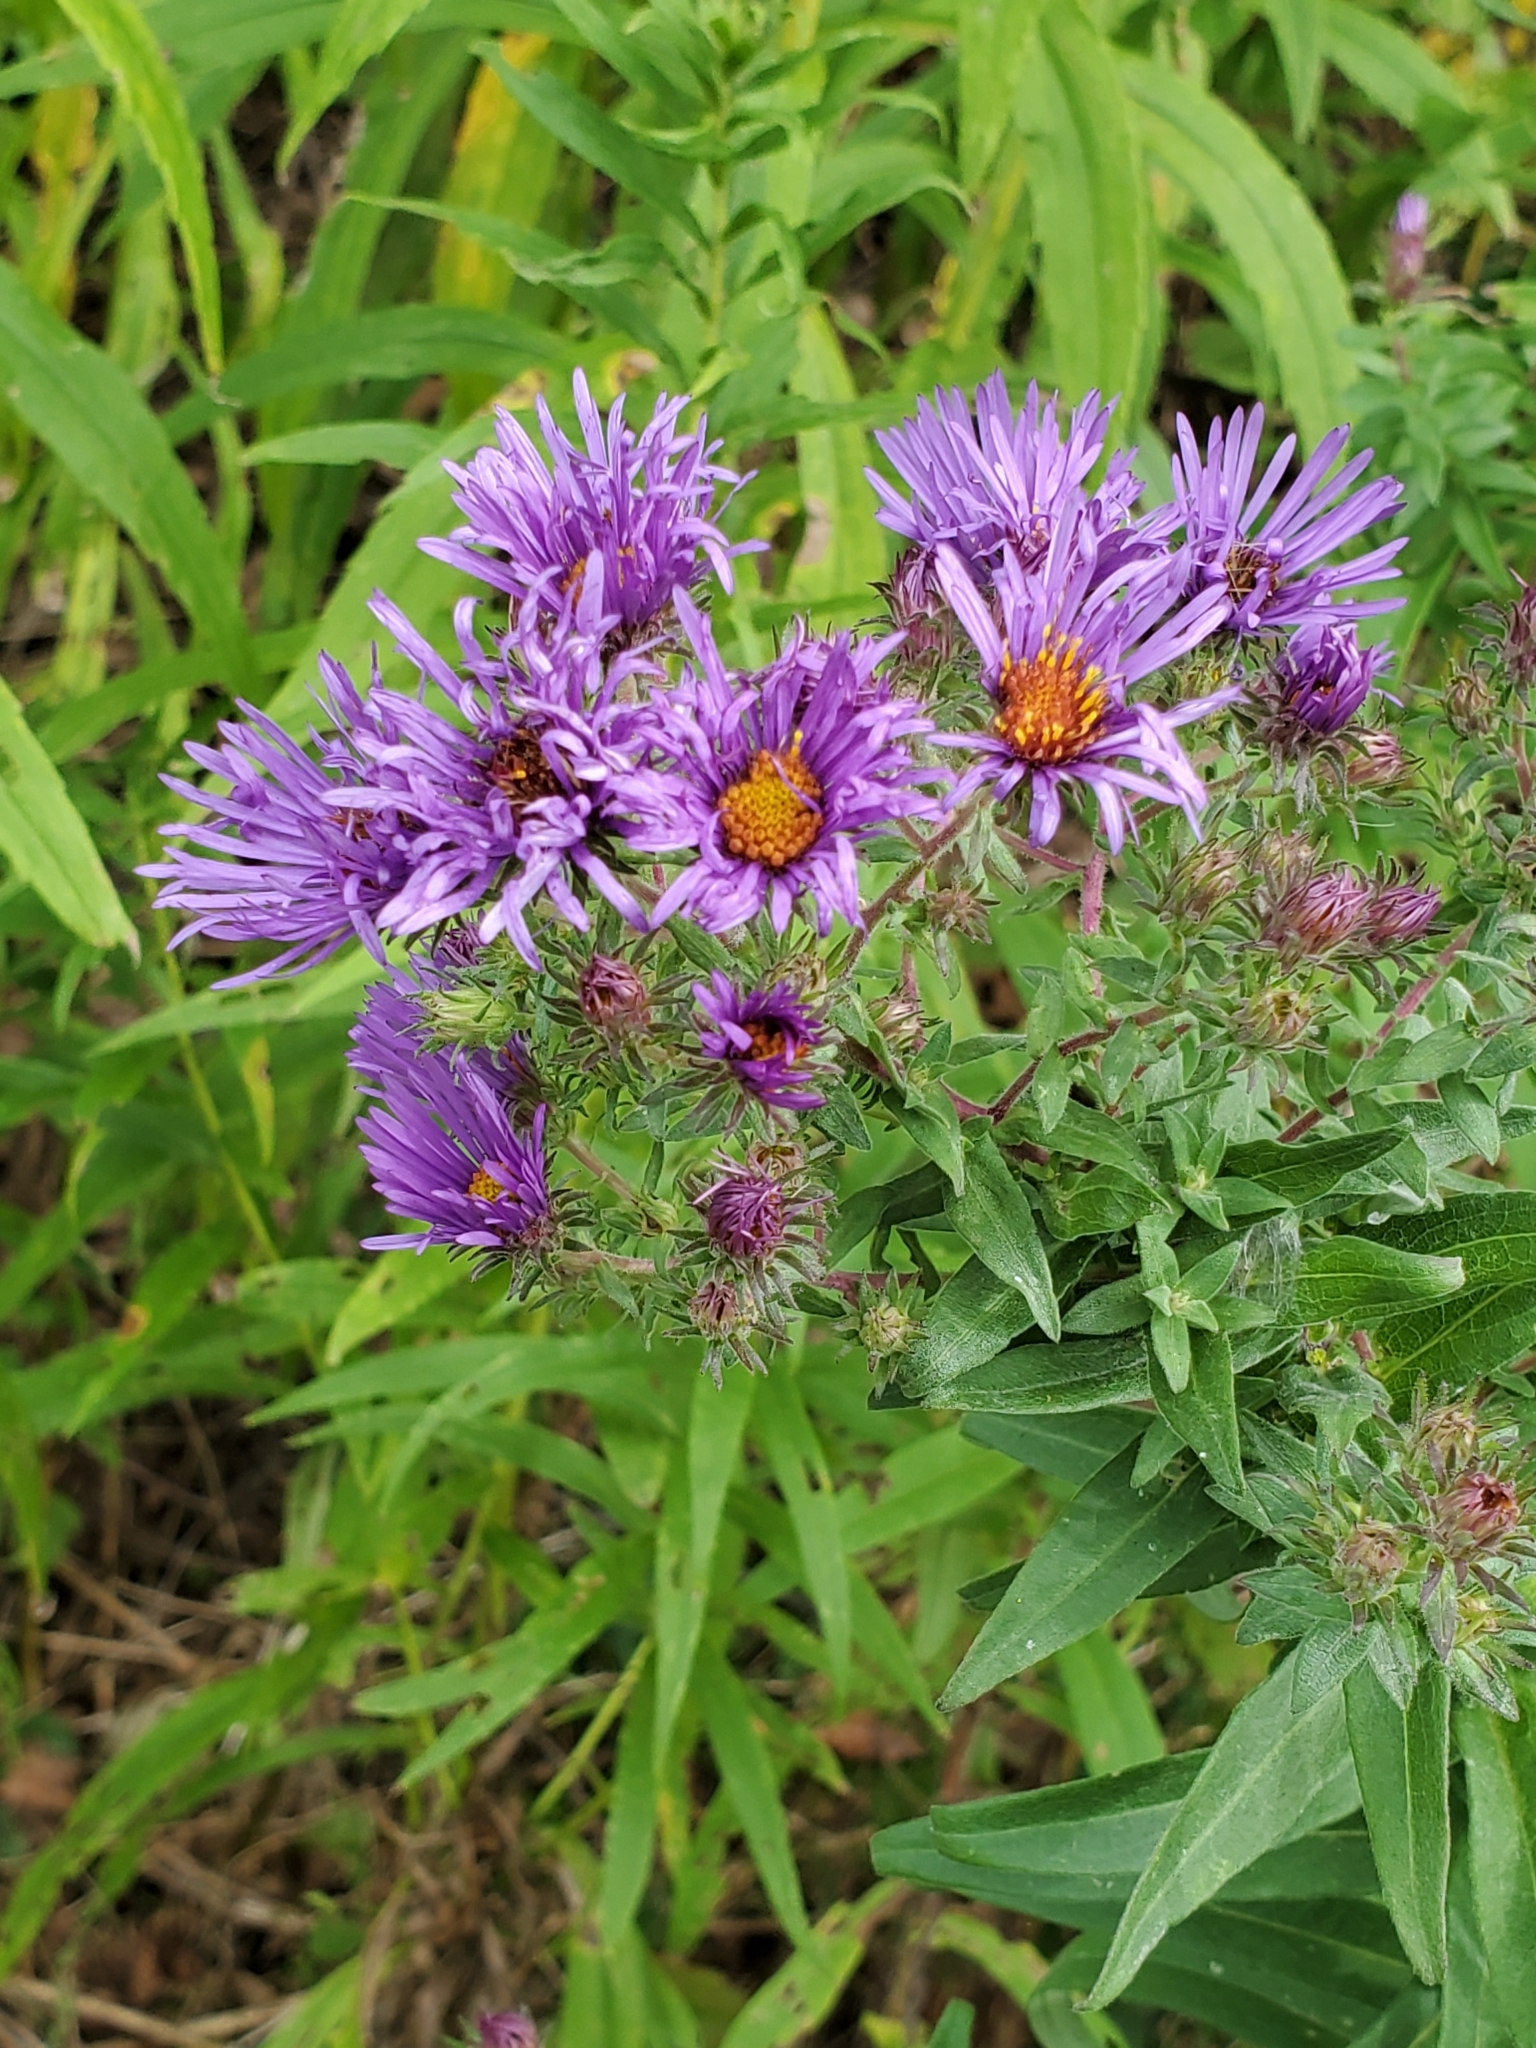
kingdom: Plantae
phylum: Tracheophyta
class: Magnoliopsida
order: Asterales
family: Asteraceae
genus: Symphyotrichum
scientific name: Symphyotrichum novae-angliae
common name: Michaelmas daisy
